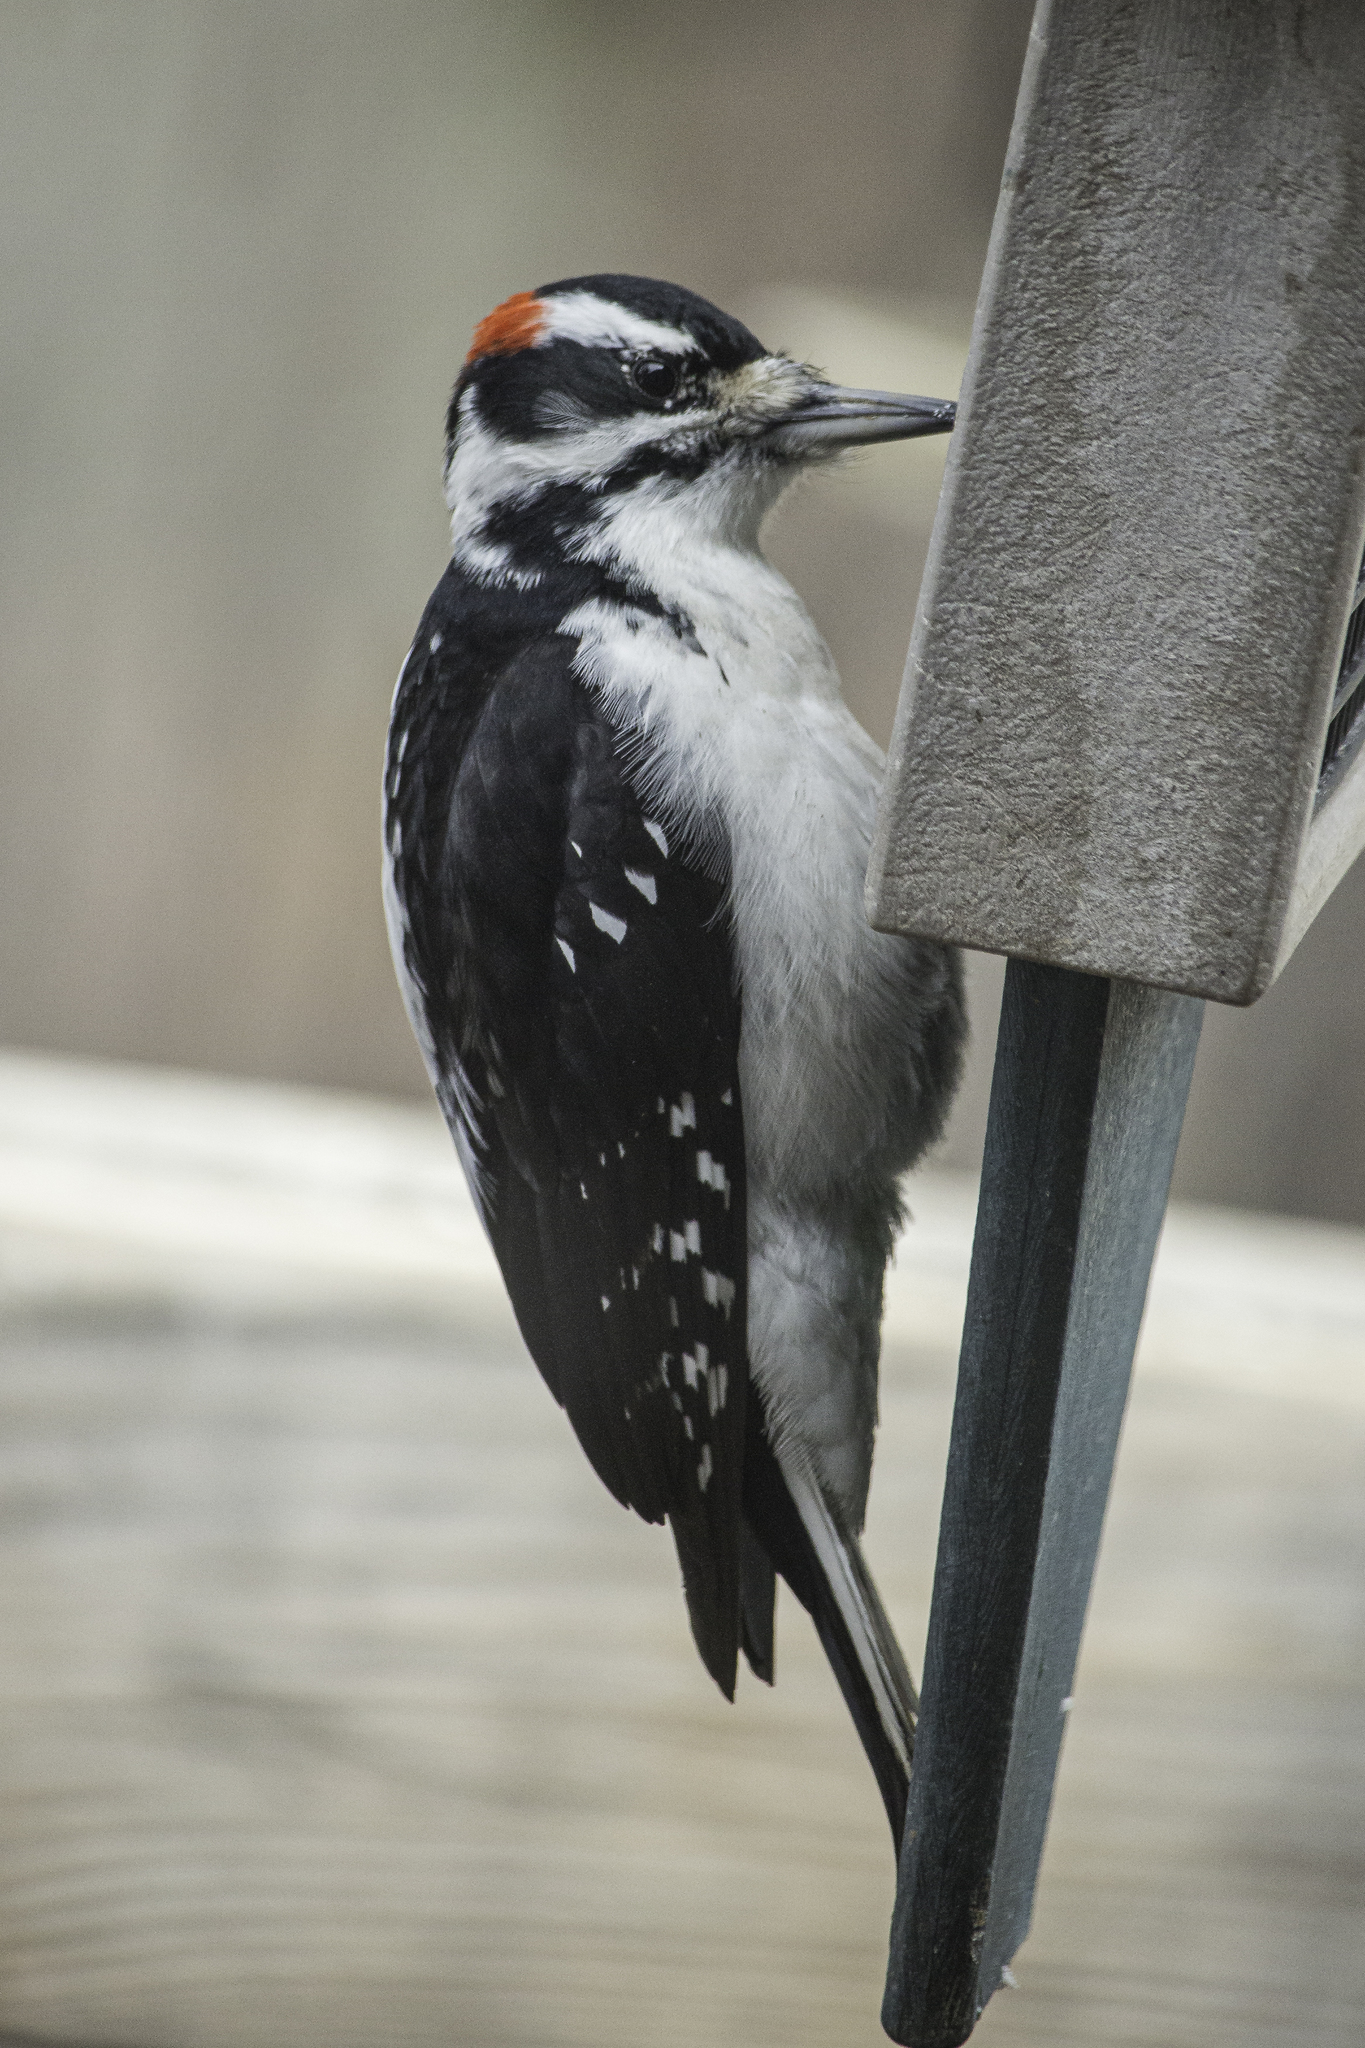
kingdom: Animalia
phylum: Chordata
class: Aves
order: Piciformes
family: Picidae
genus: Leuconotopicus
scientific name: Leuconotopicus villosus
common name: Hairy woodpecker
